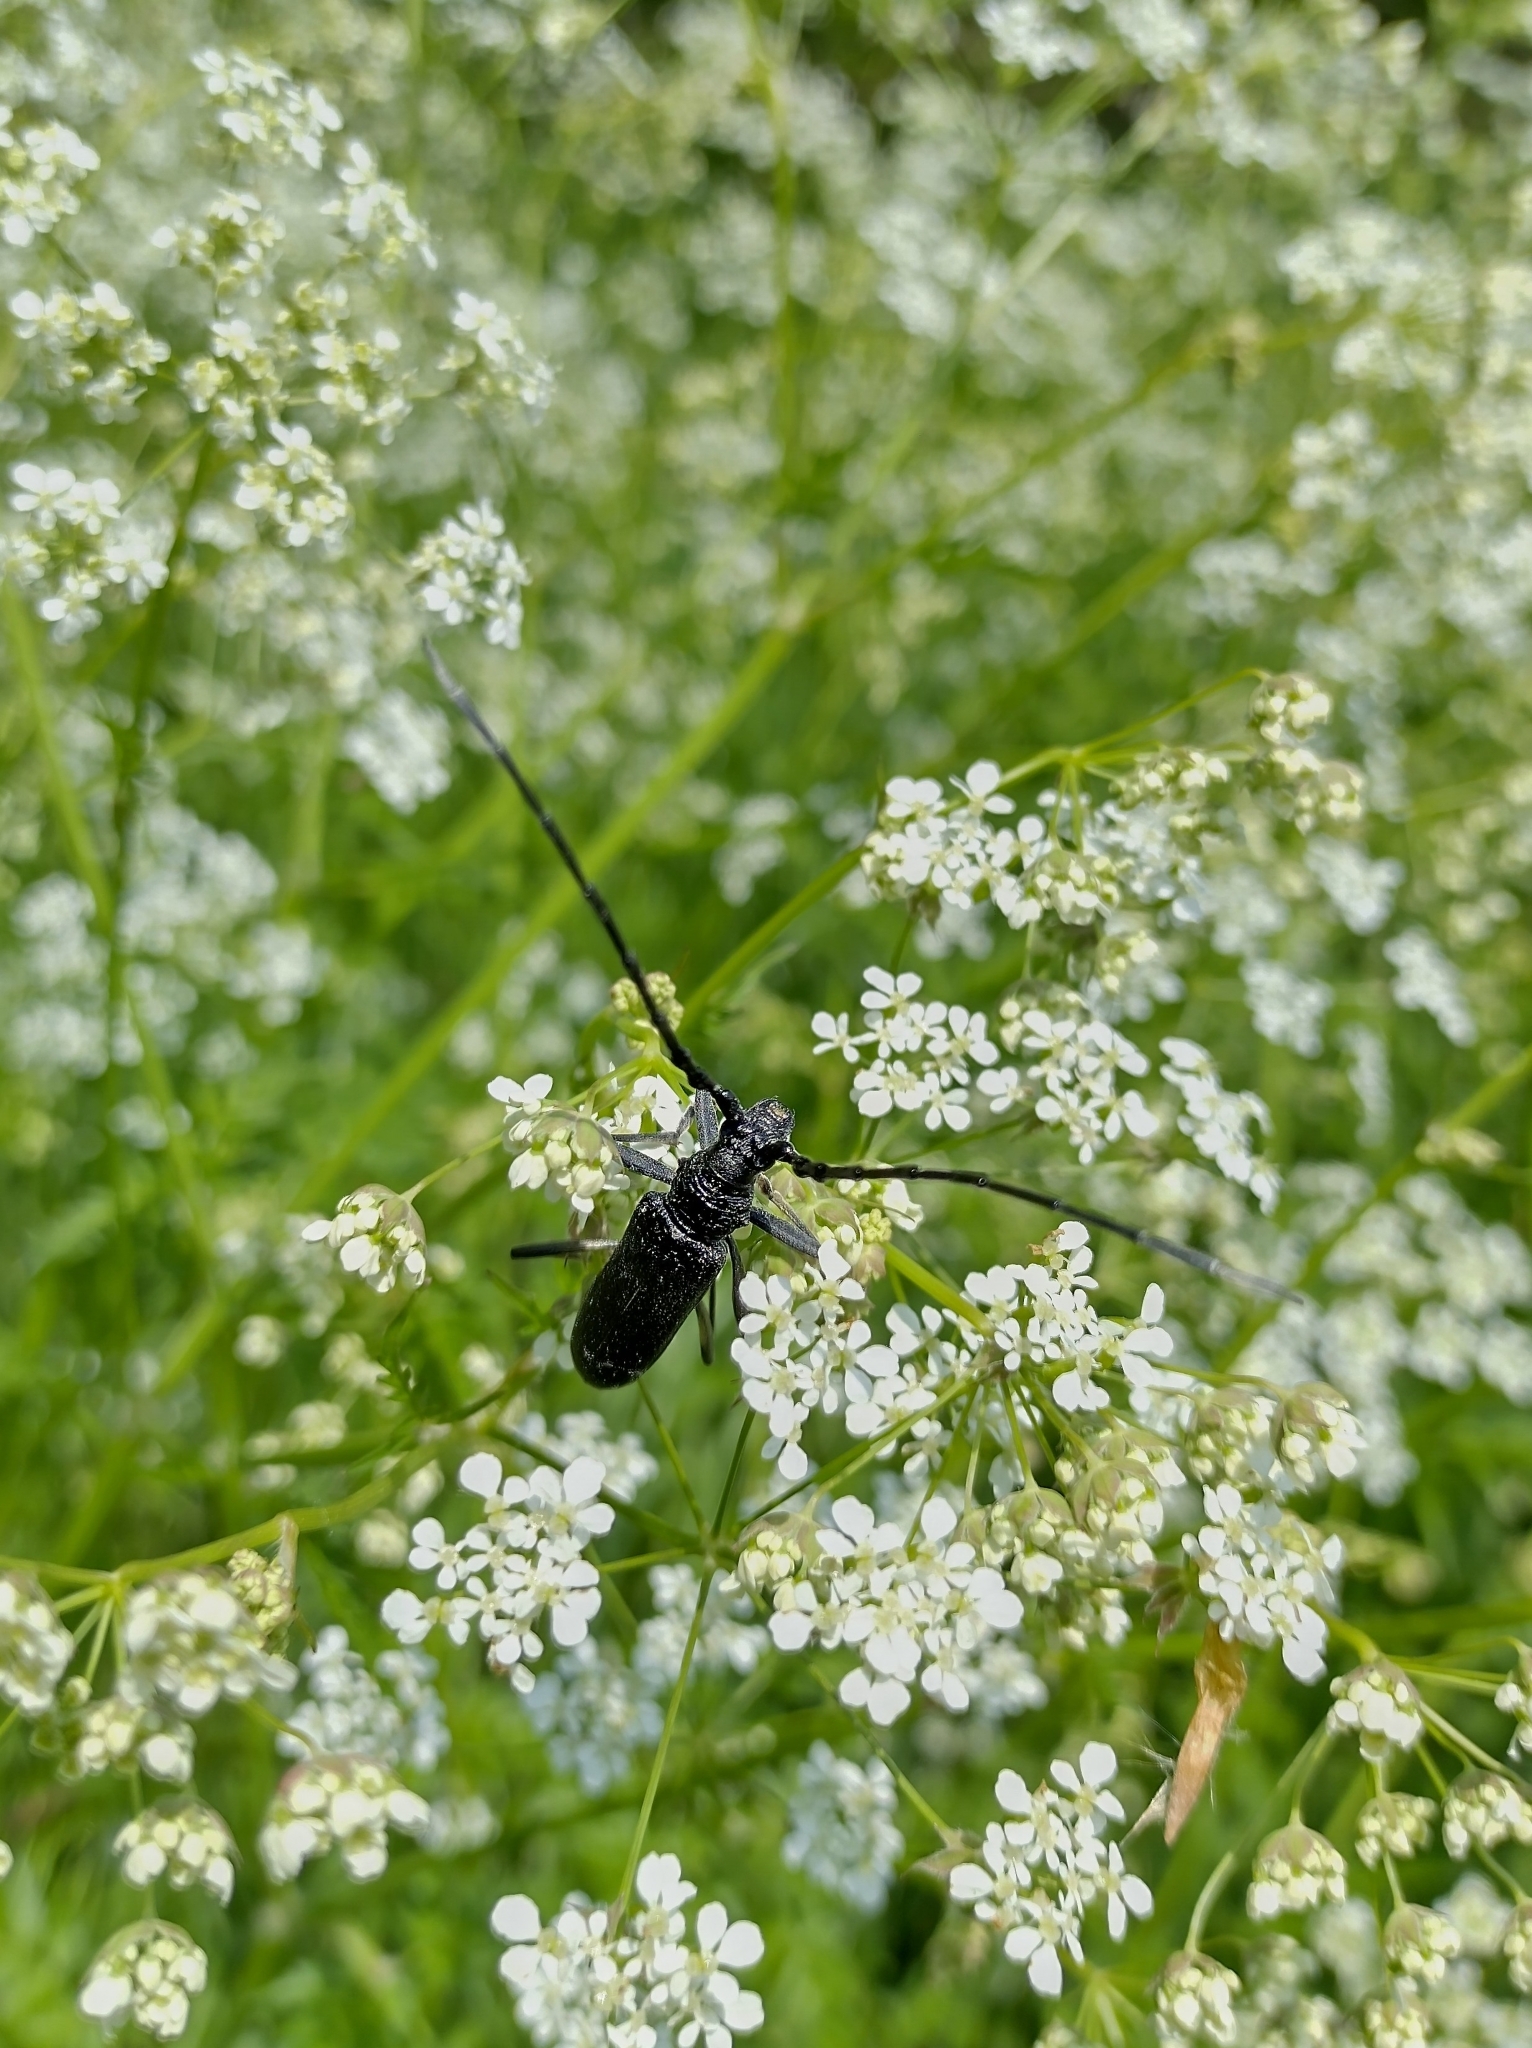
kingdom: Animalia
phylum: Arthropoda
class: Insecta
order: Coleoptera
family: Cerambycidae
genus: Cerambyx
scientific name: Cerambyx scopolii
